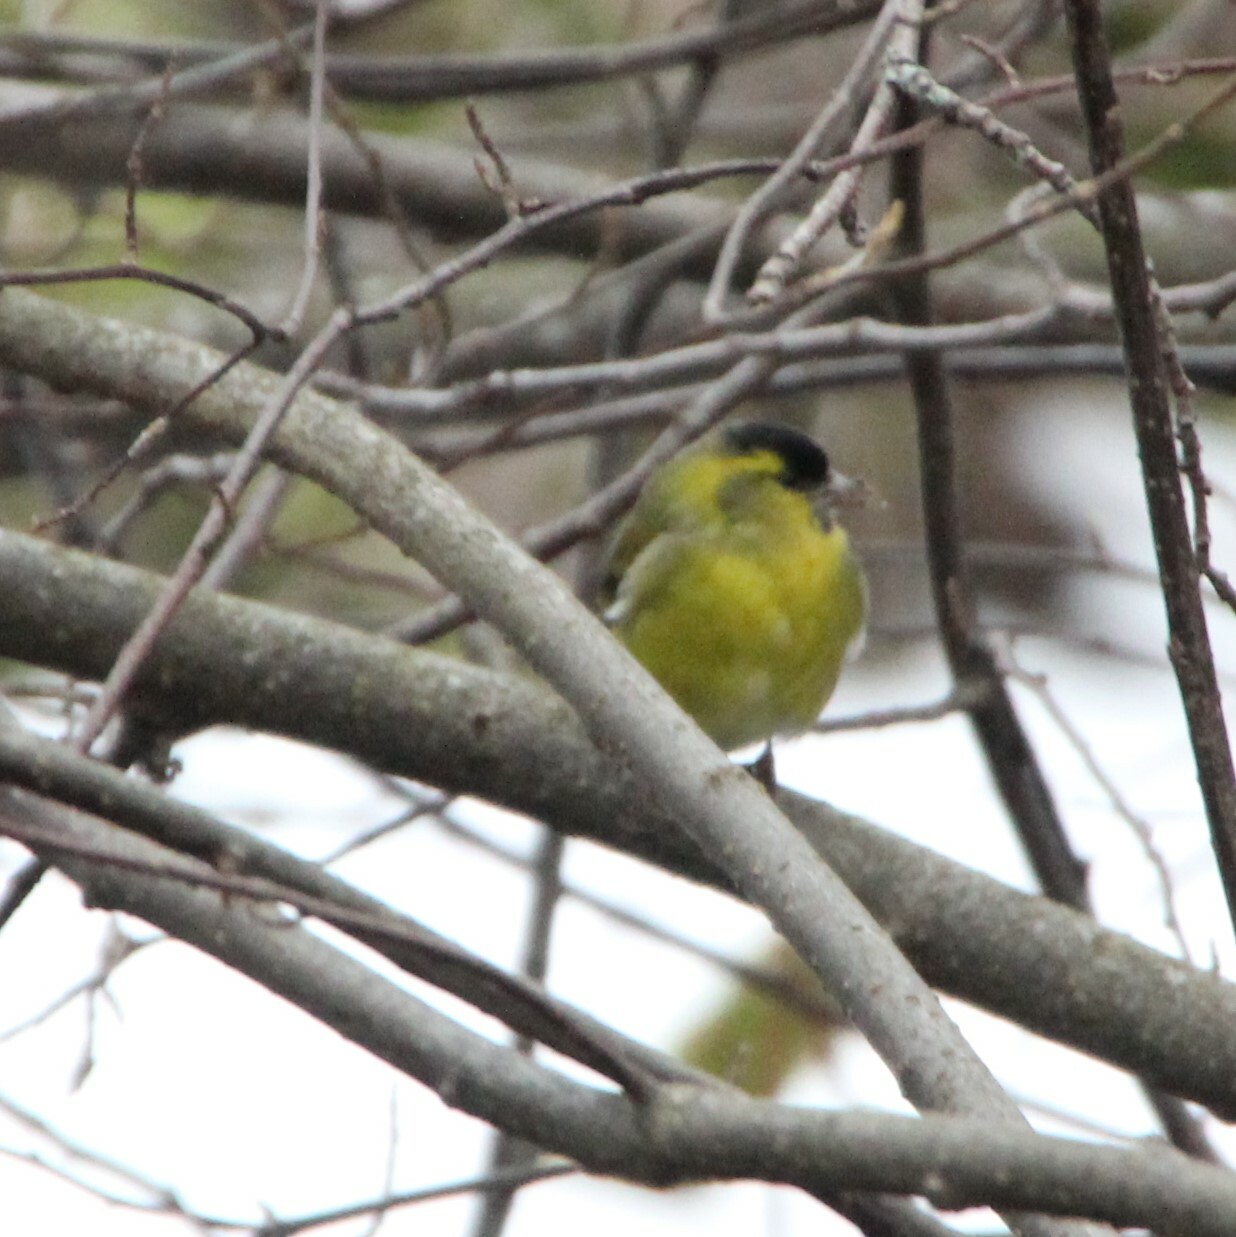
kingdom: Animalia
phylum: Chordata
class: Aves
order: Passeriformes
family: Fringillidae
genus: Spinus
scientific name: Spinus spinus
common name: Eurasian siskin
